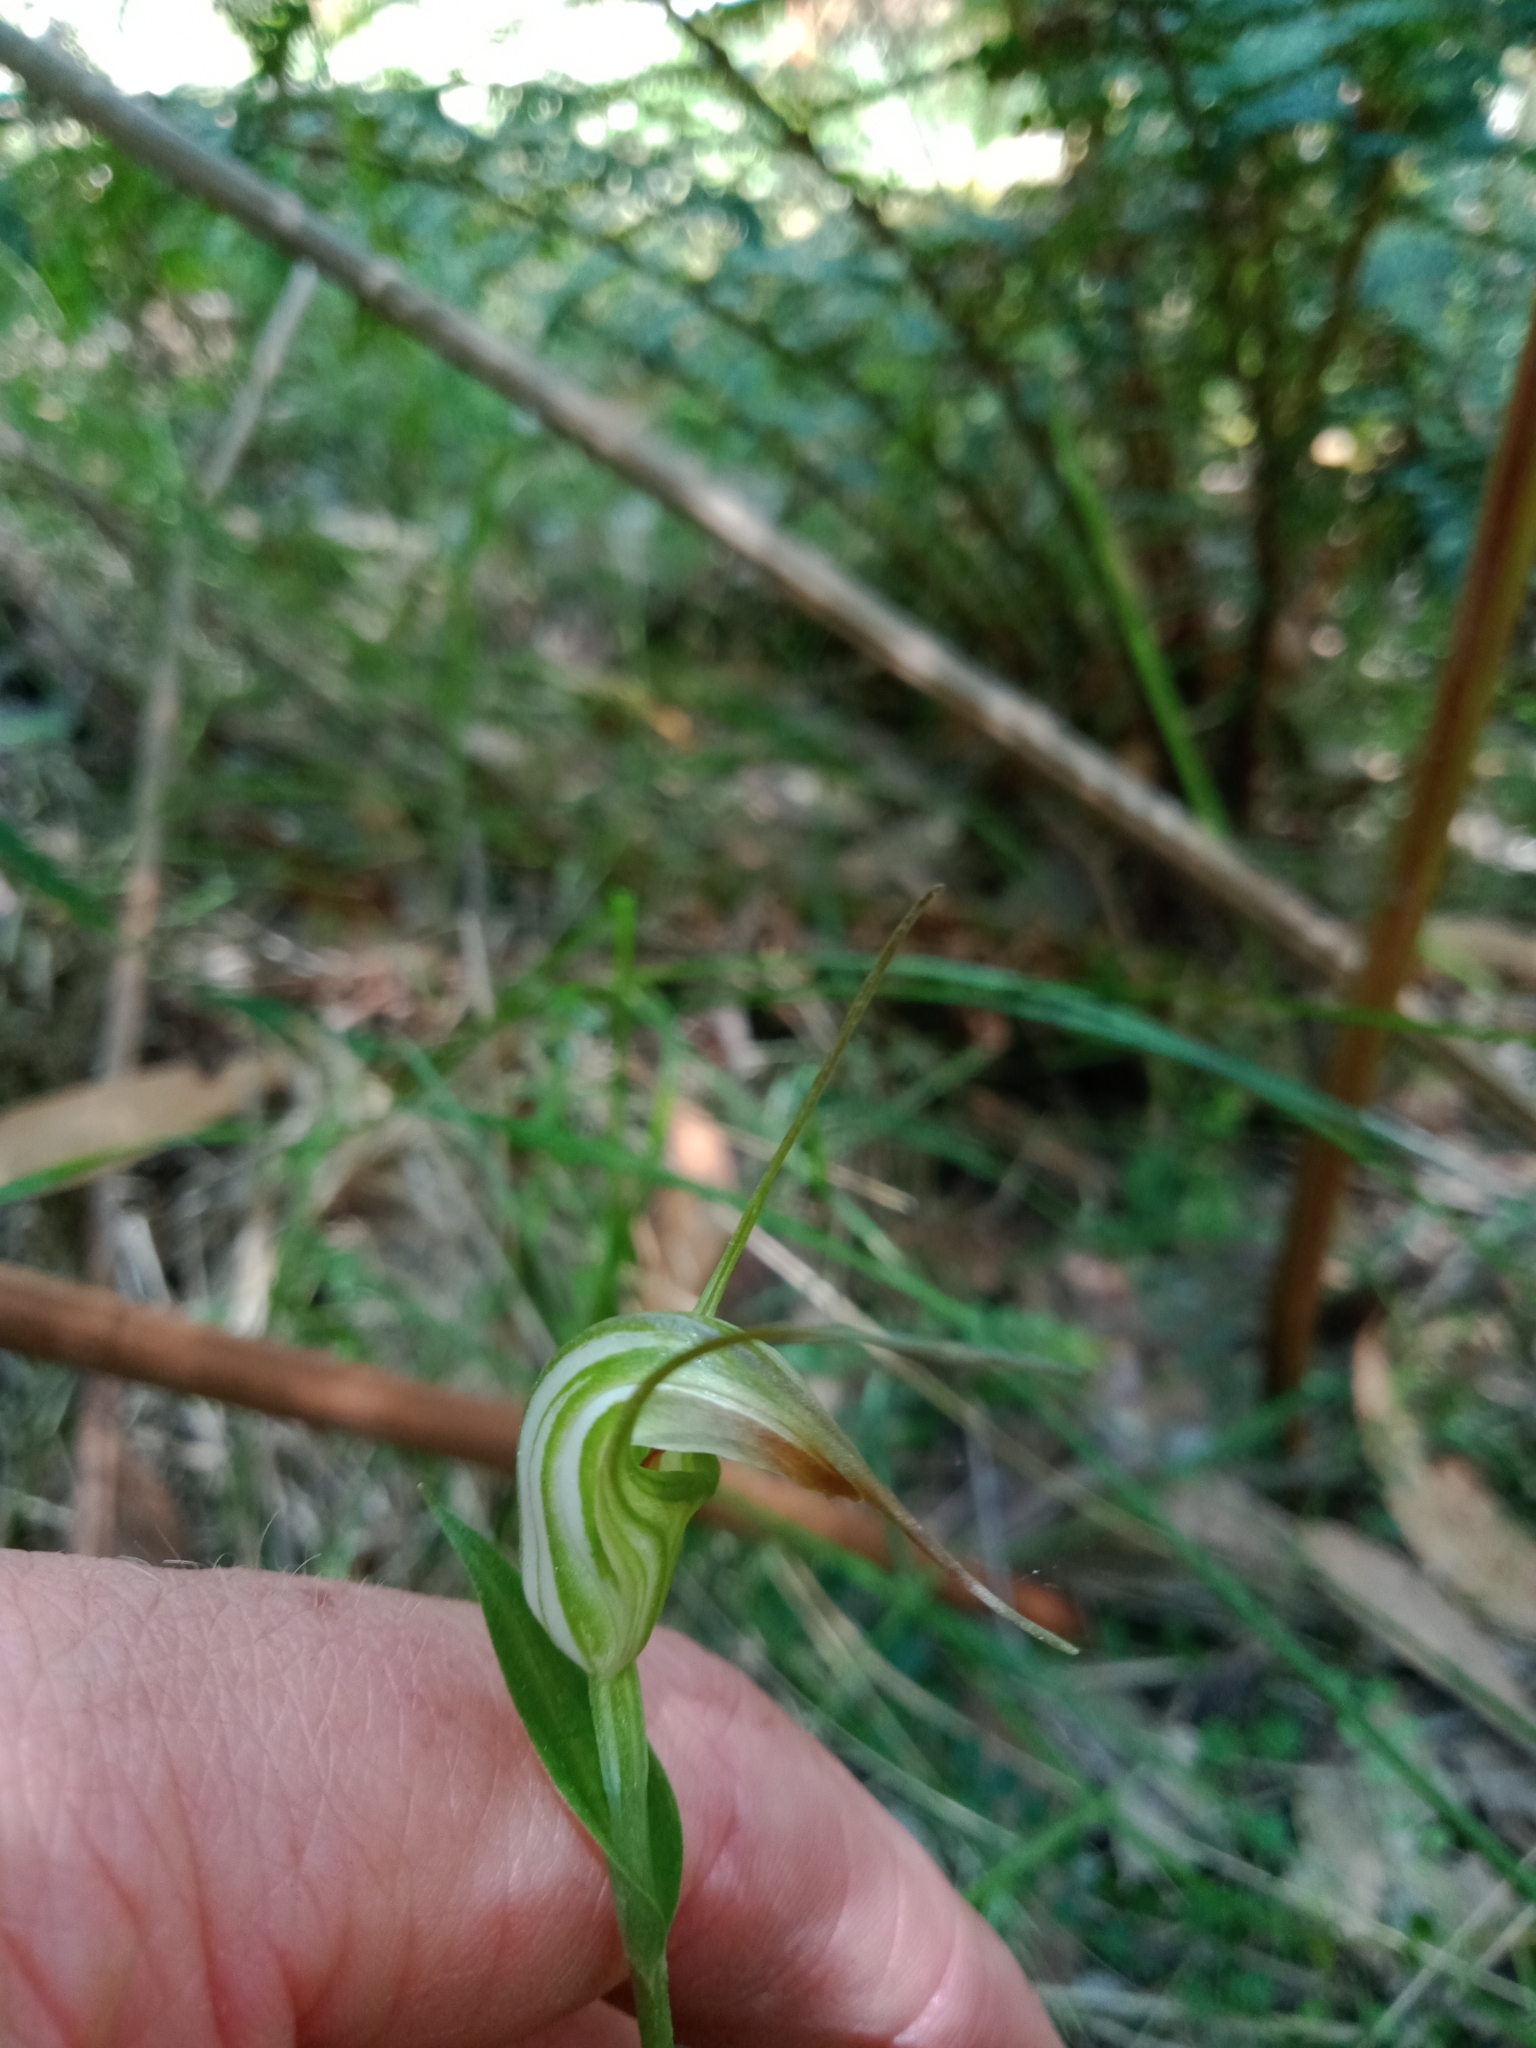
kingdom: Plantae
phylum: Tracheophyta
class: Liliopsida
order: Asparagales
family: Orchidaceae
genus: Pterostylis
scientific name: Pterostylis decurva
